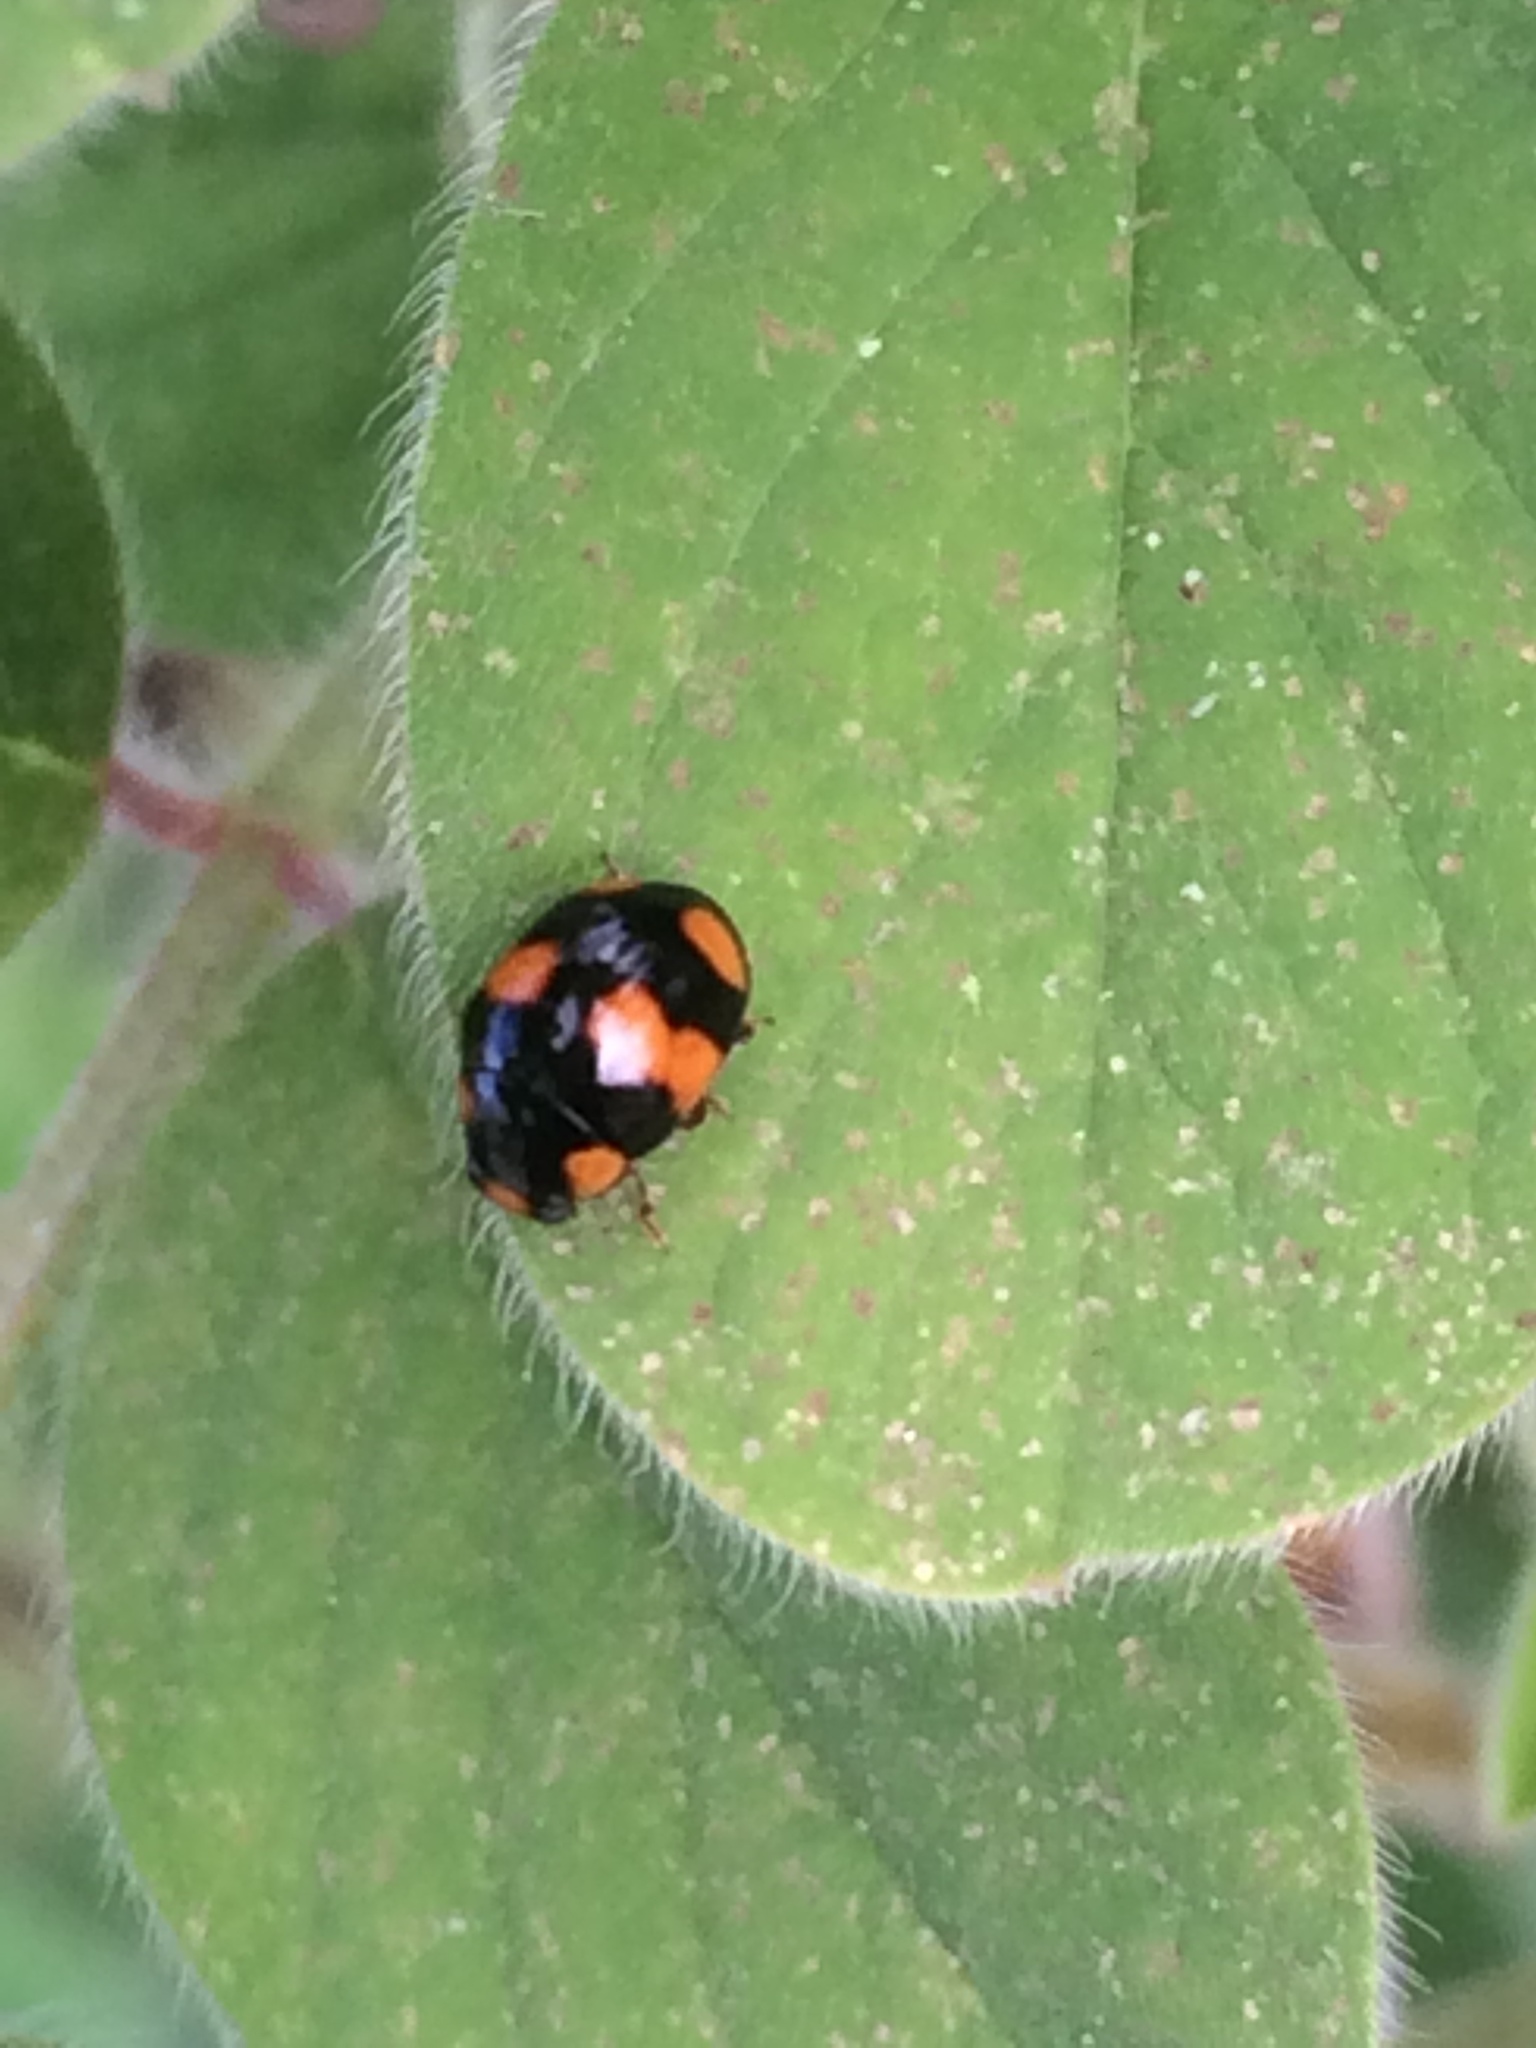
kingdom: Animalia
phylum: Arthropoda
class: Insecta
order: Coleoptera
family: Coccinellidae
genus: Brachiacantha
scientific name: Brachiacantha dentipes
